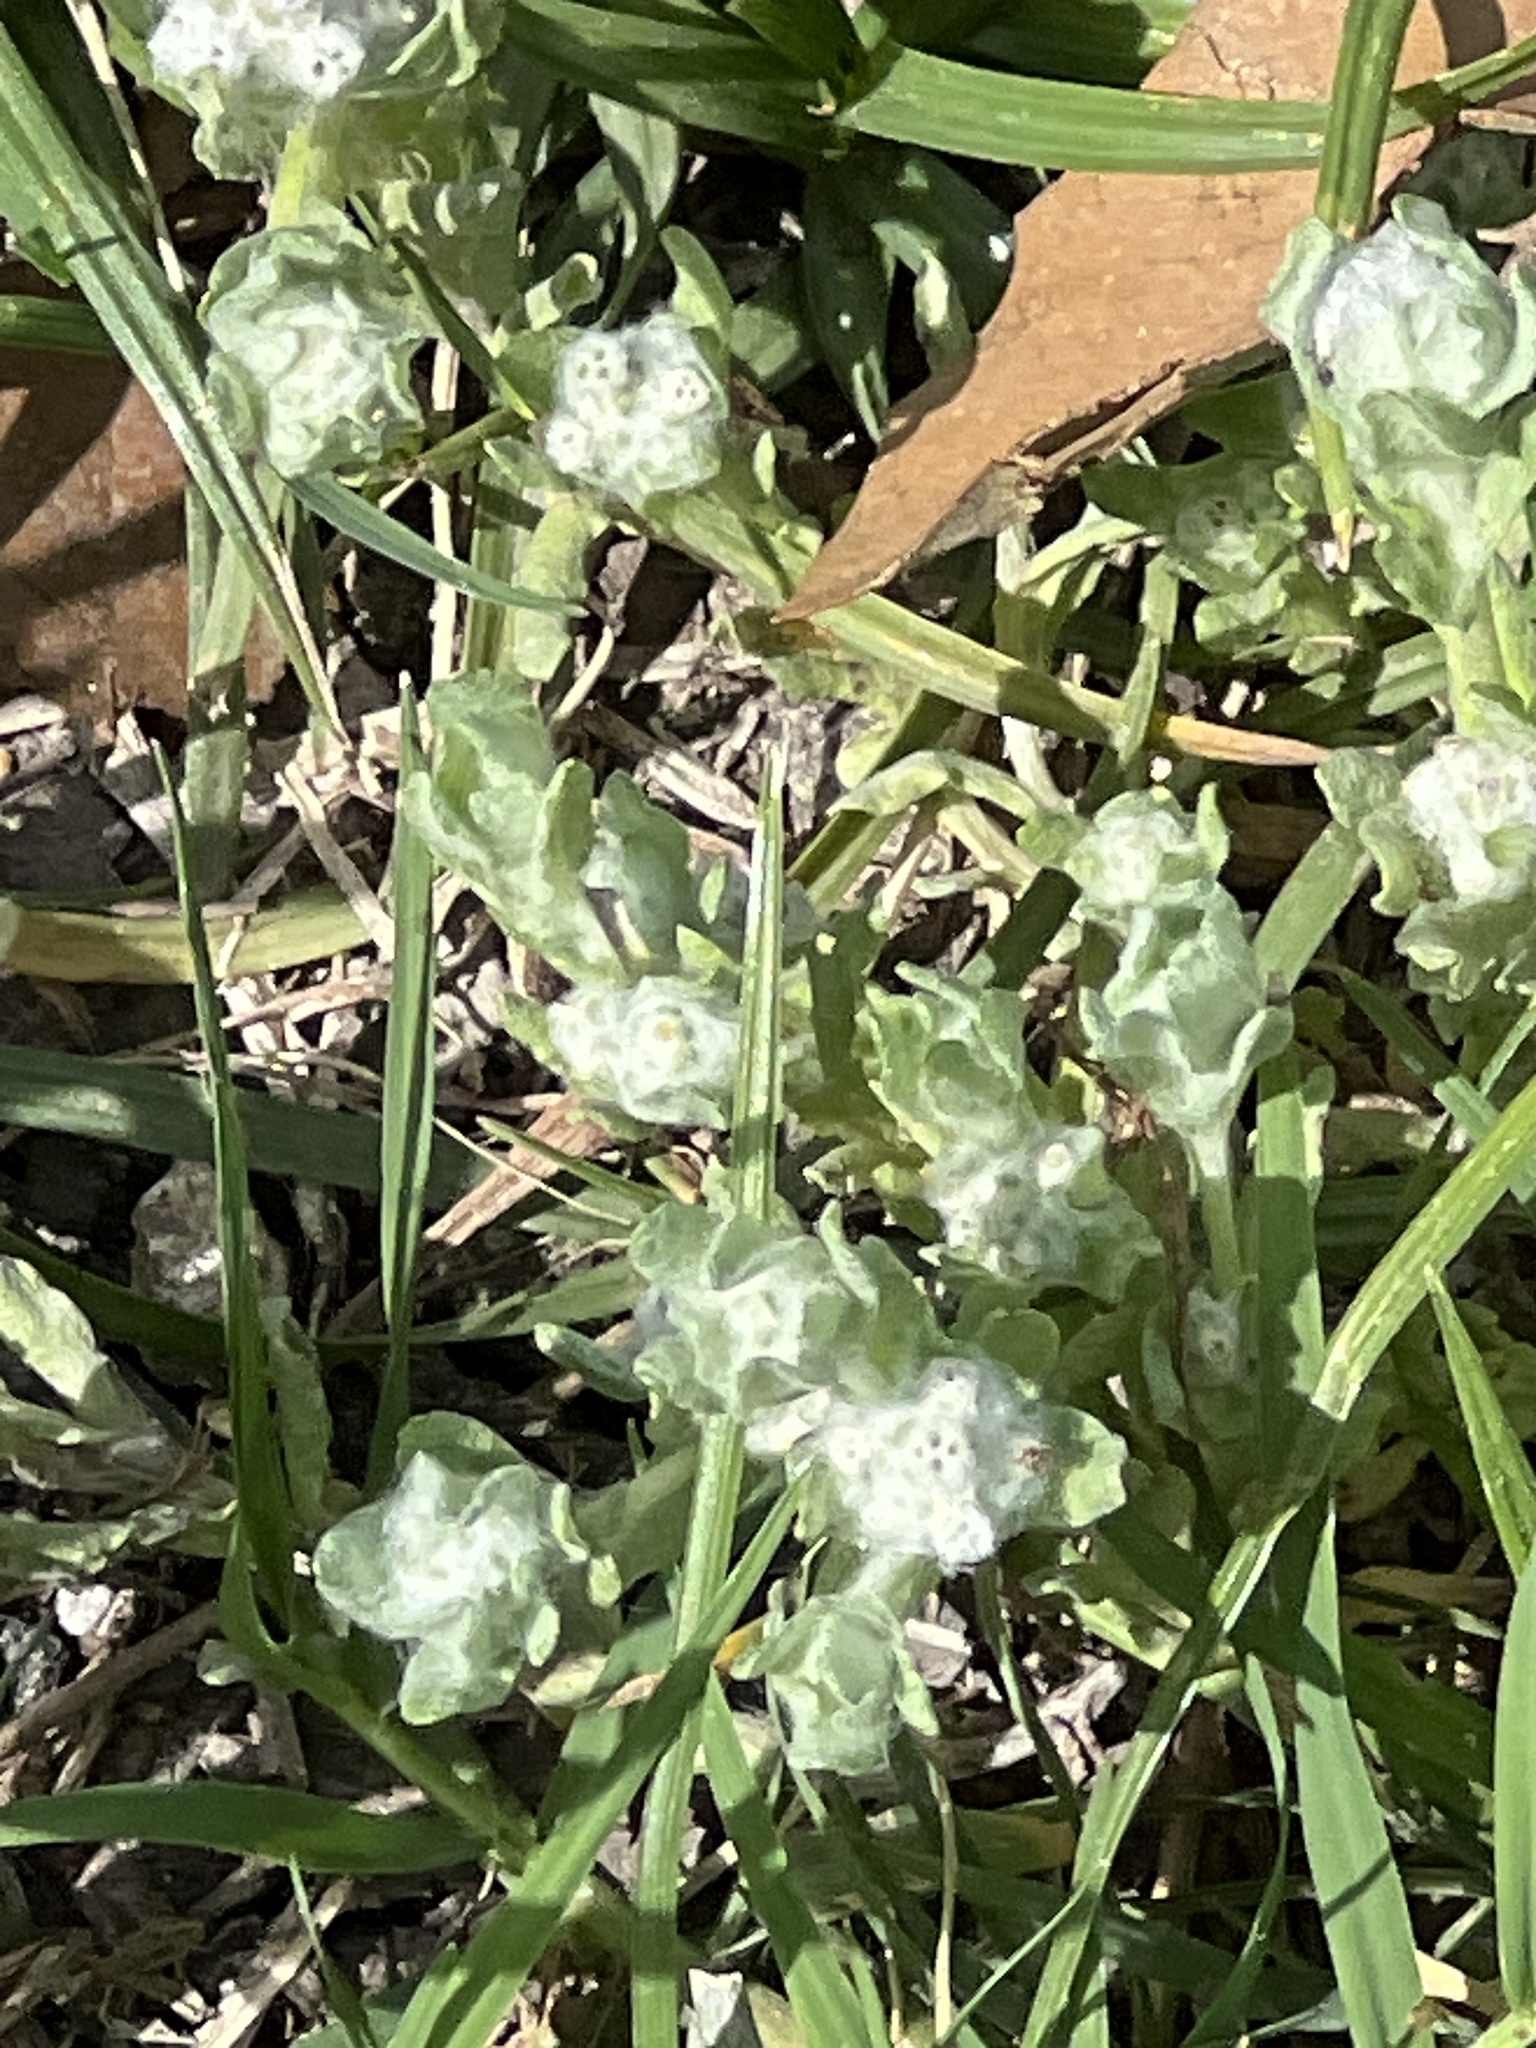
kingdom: Plantae
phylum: Tracheophyta
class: Magnoliopsida
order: Asterales
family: Asteraceae
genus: Diaperia
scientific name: Diaperia verna
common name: Many-stem rabbit-tobacco
